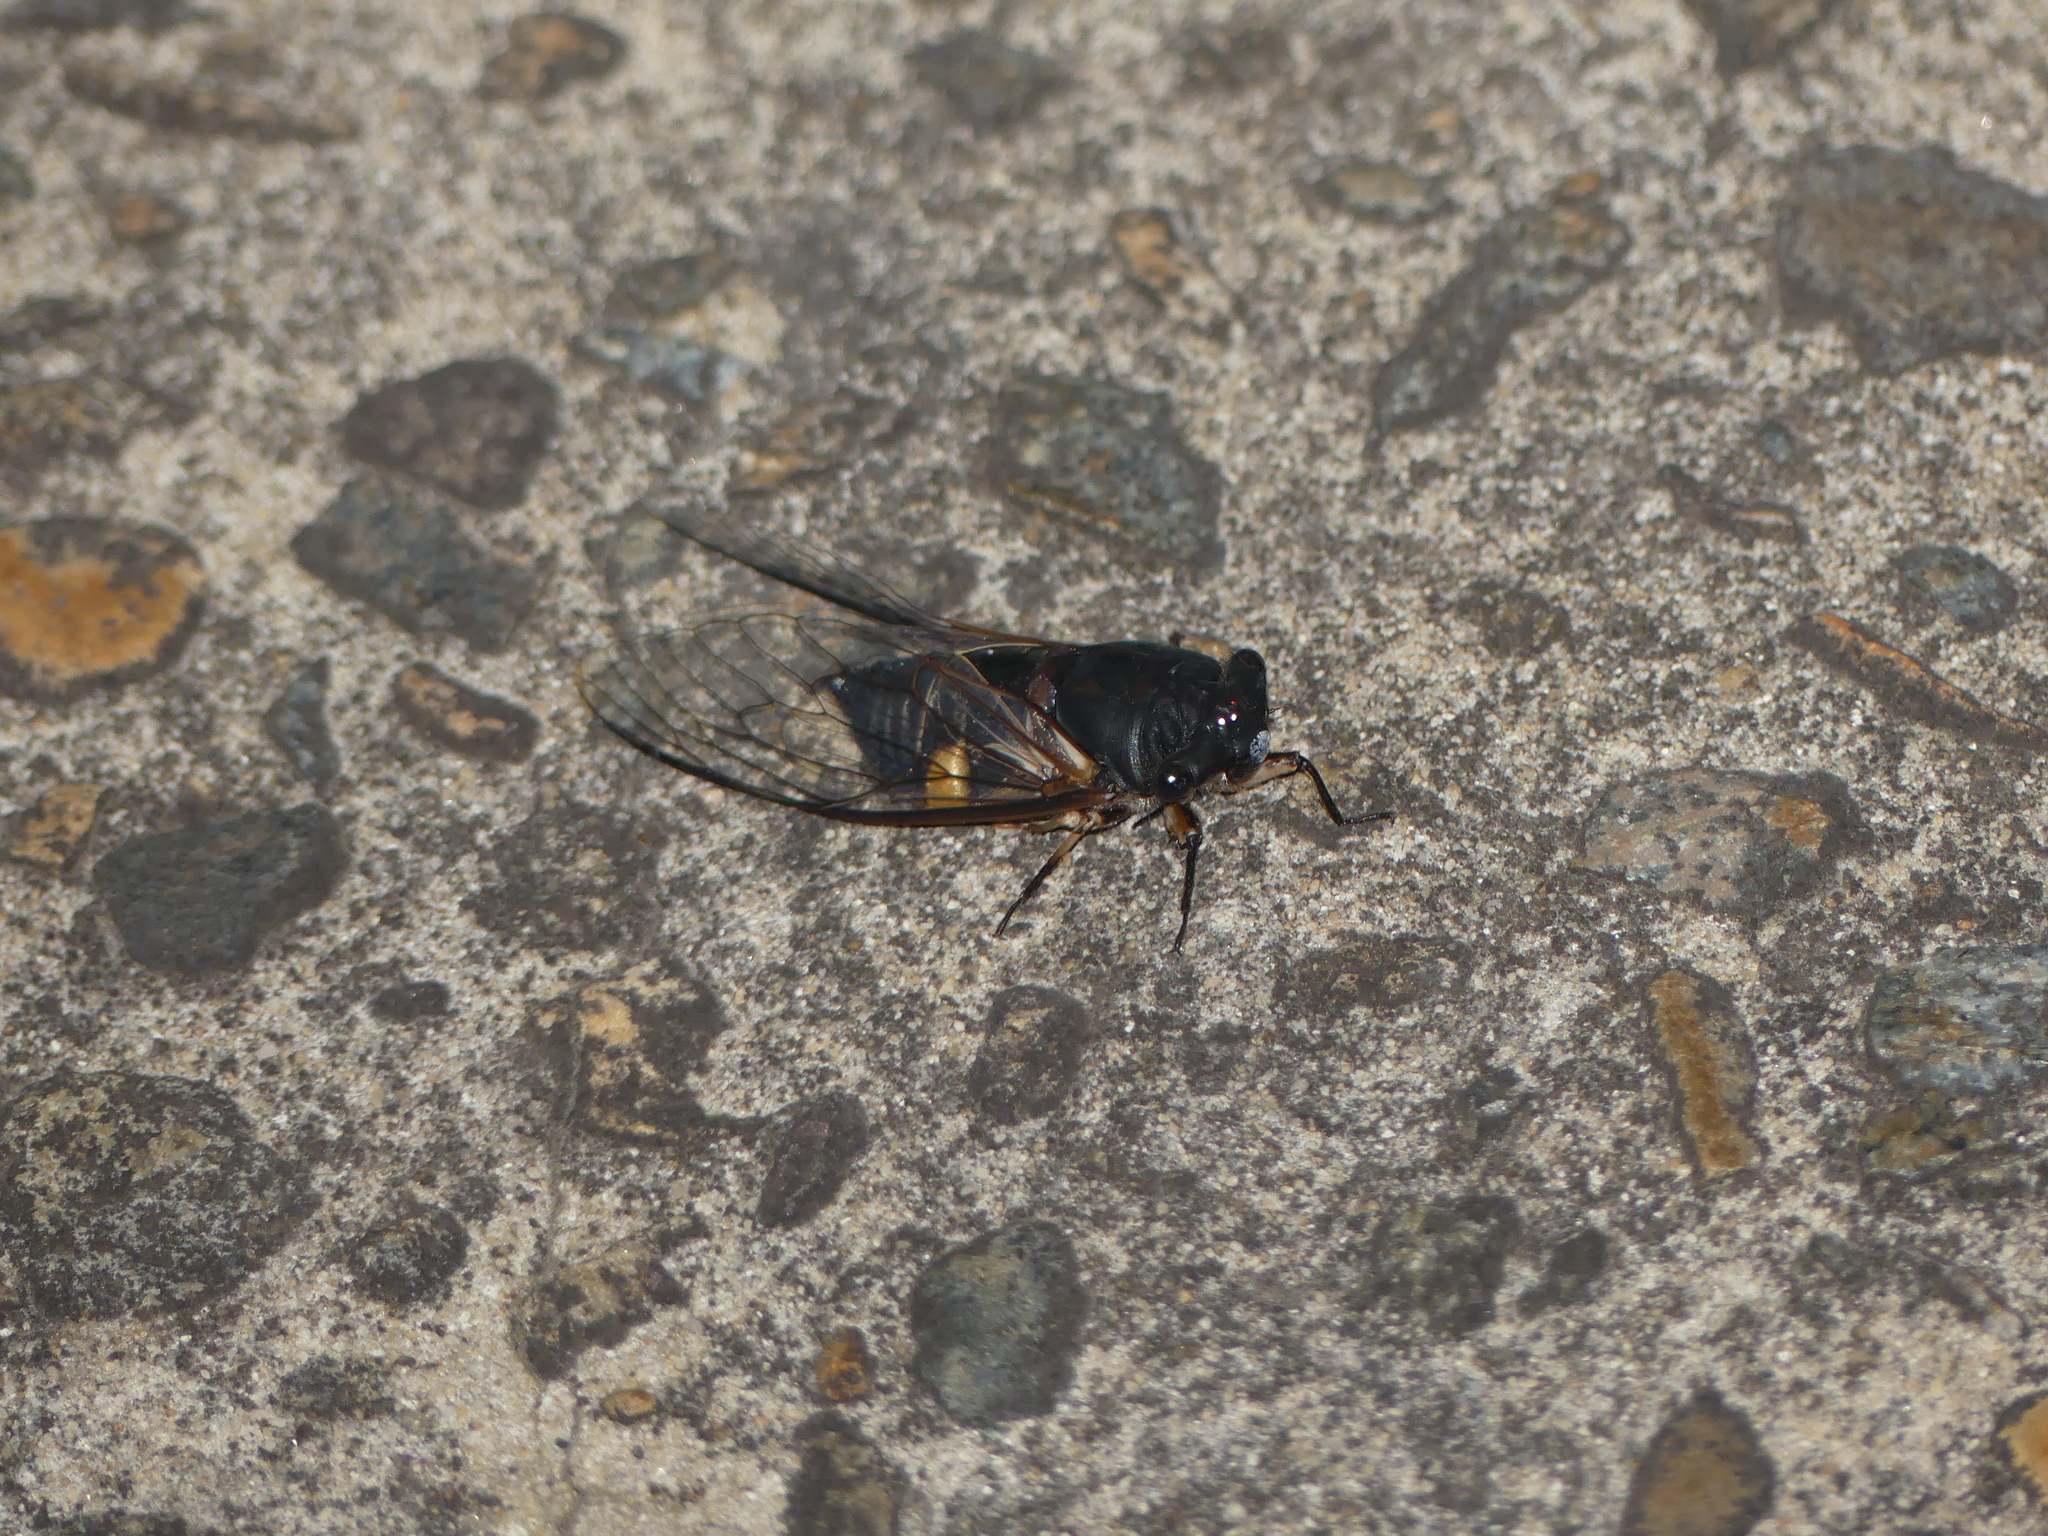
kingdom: Animalia
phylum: Arthropoda
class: Insecta
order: Hemiptera
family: Cicadidae
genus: Psaltoda
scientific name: Psaltoda harrisii
